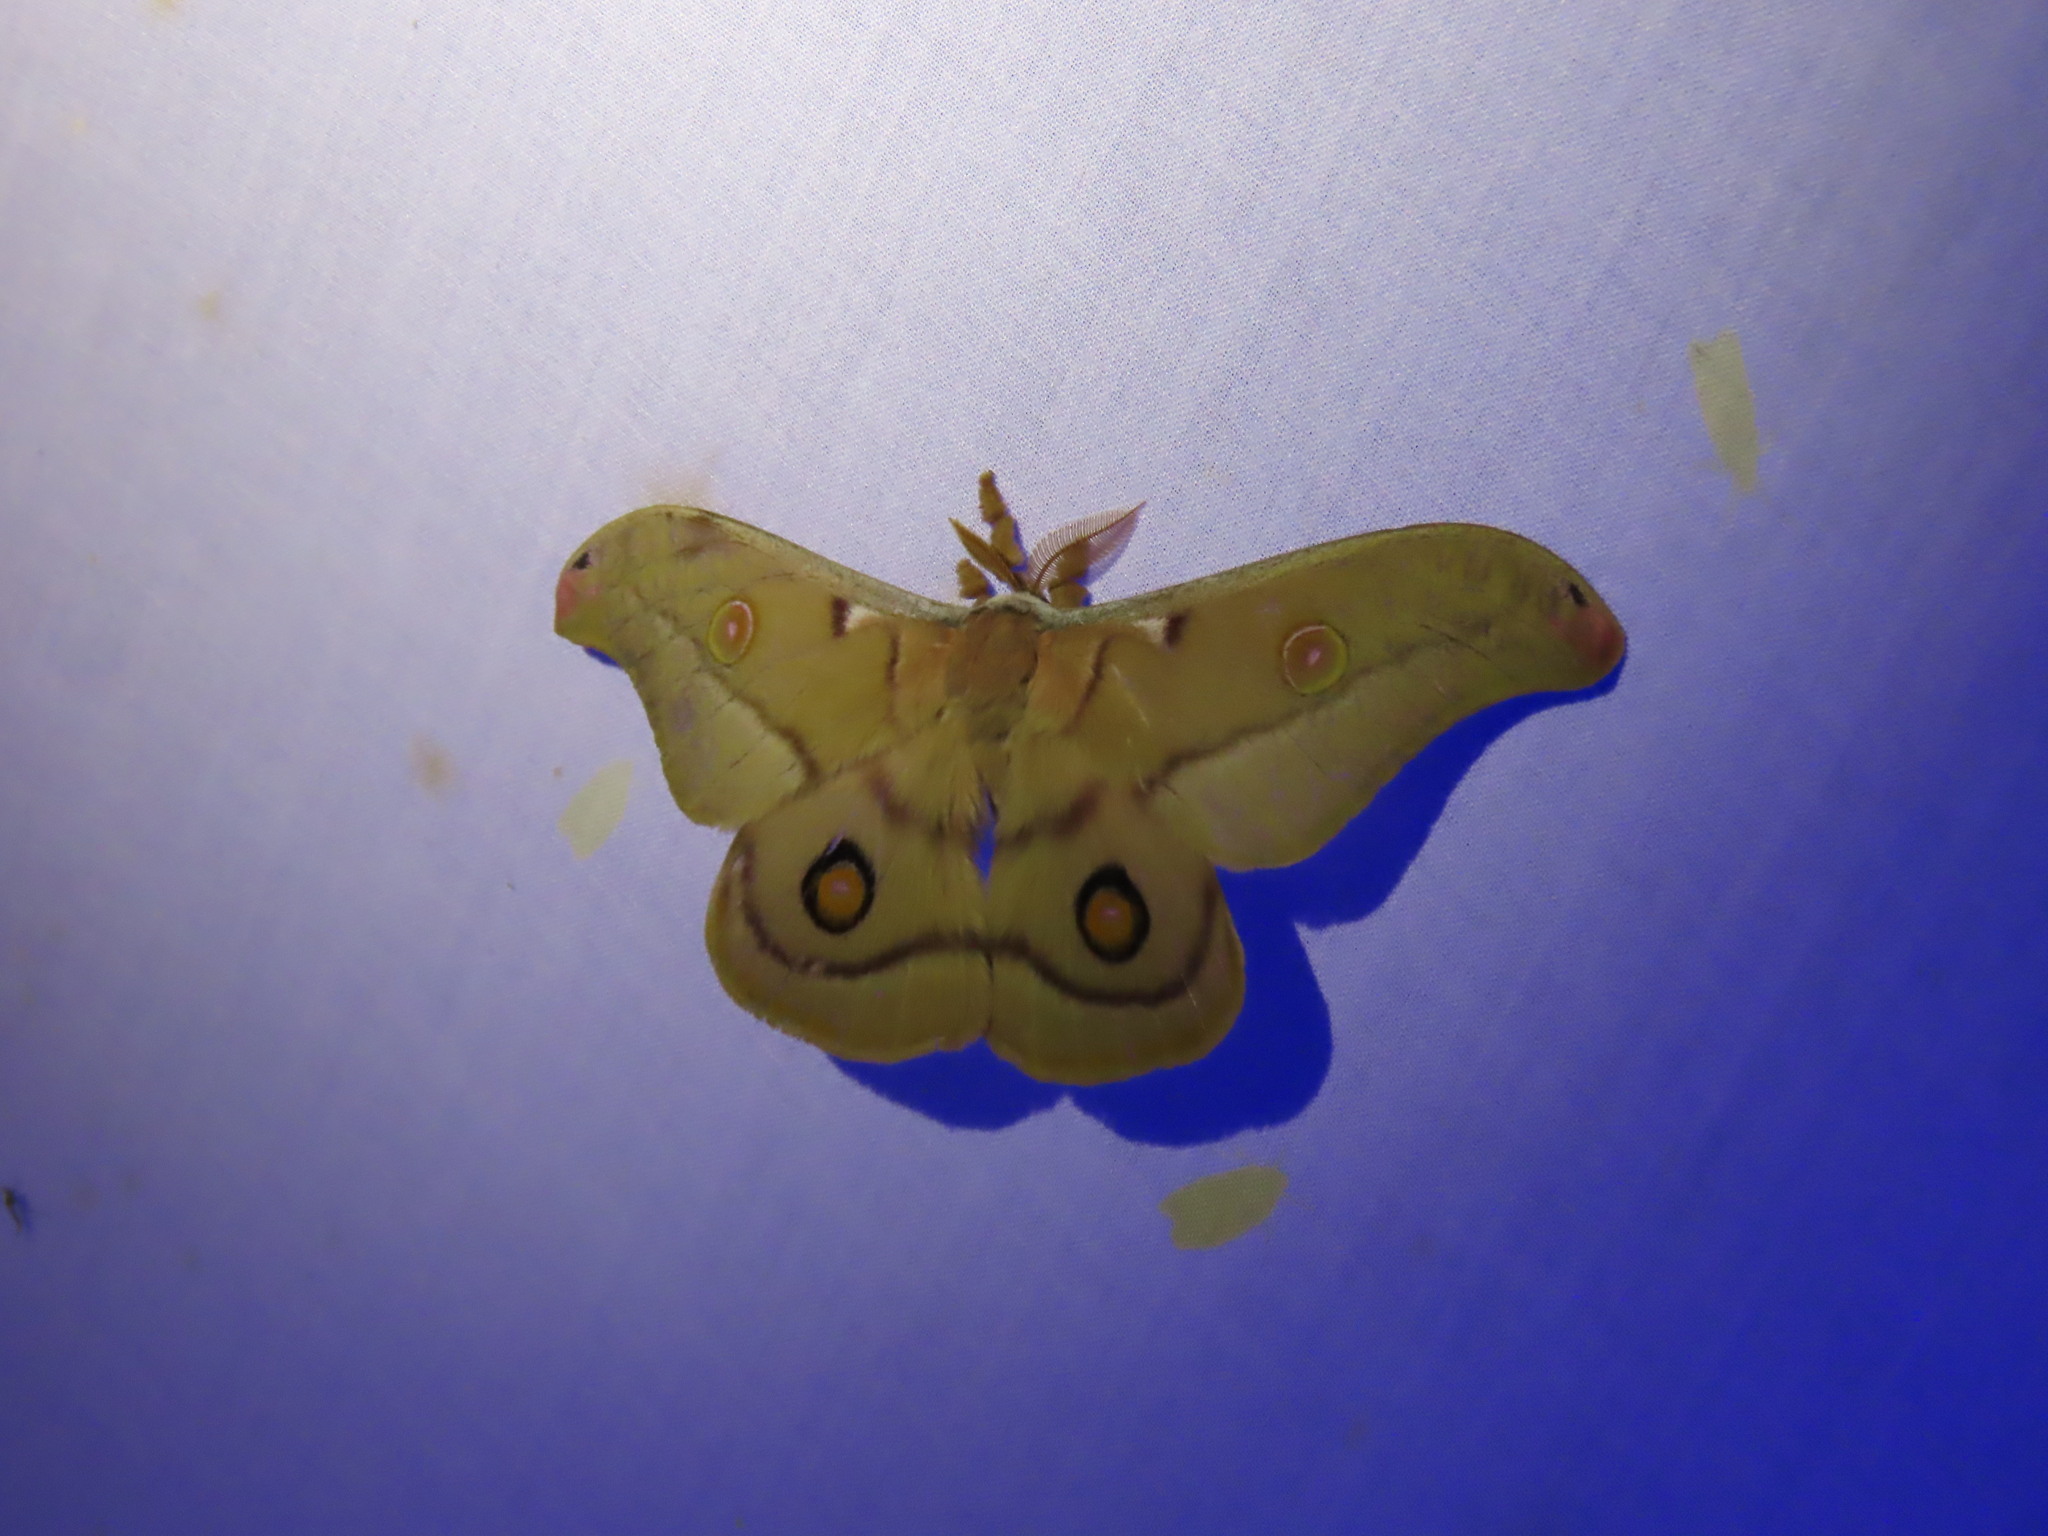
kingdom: Animalia
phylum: Arthropoda
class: Insecta
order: Lepidoptera
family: Saturniidae
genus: Opodiphthera
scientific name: Opodiphthera
